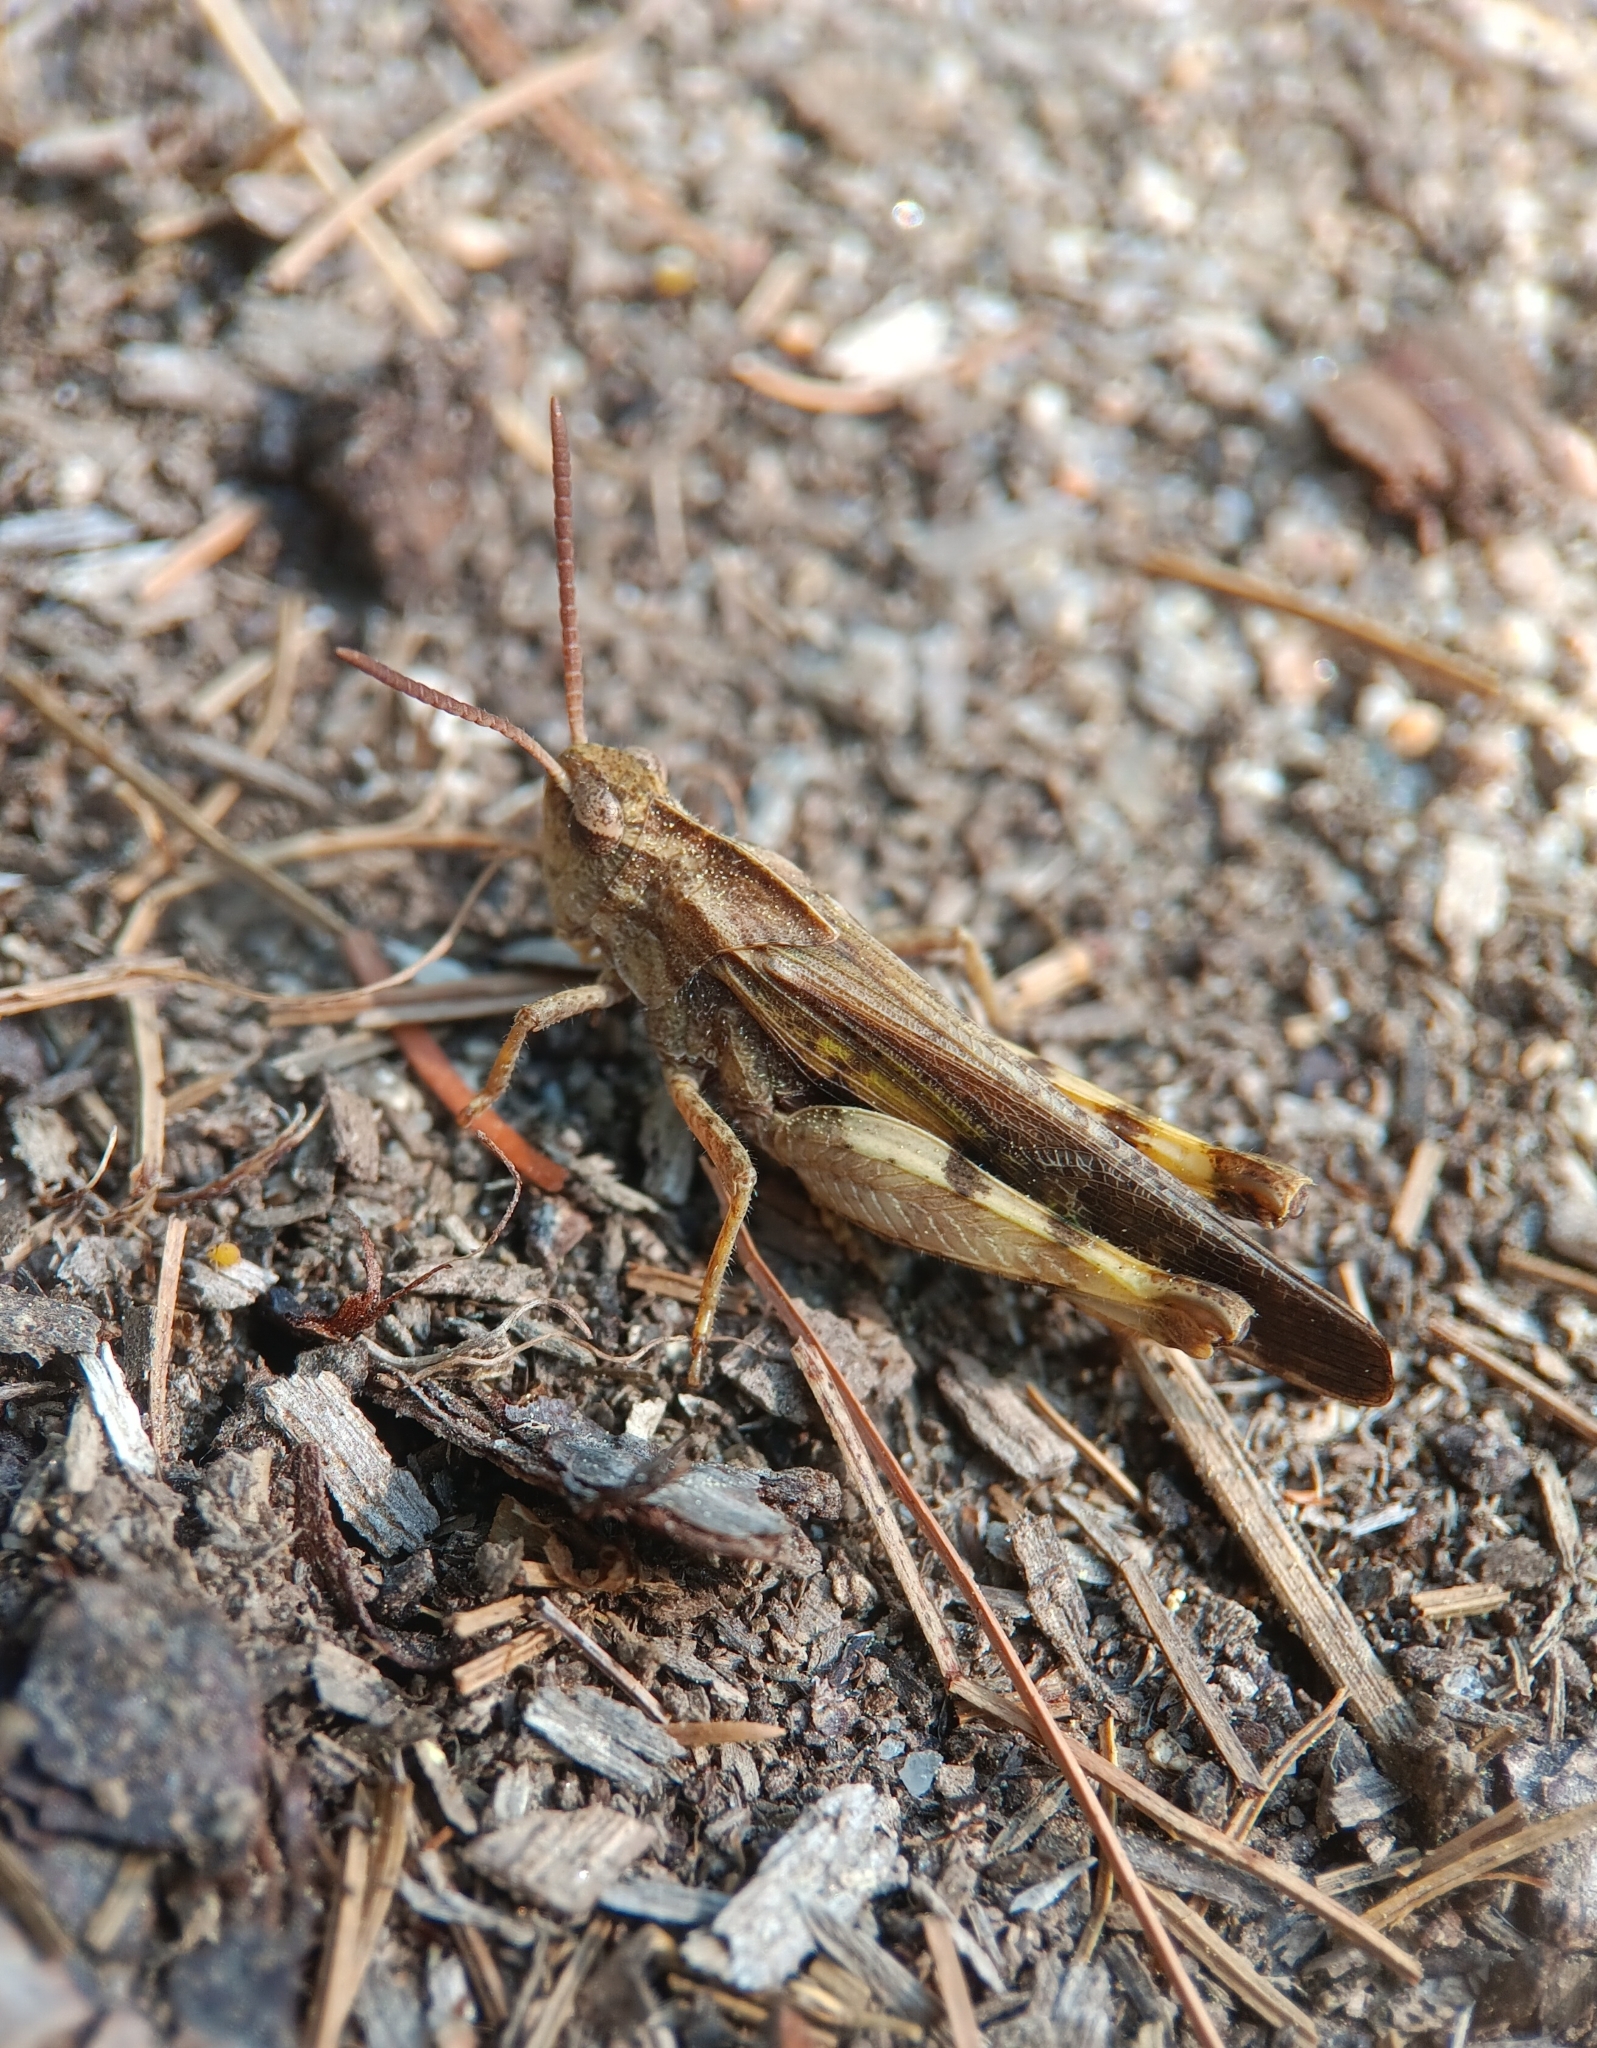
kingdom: Animalia
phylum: Arthropoda
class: Insecta
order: Orthoptera
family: Acrididae
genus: Chortophaga
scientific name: Chortophaga viridifasciata
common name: Green-striped grasshopper
